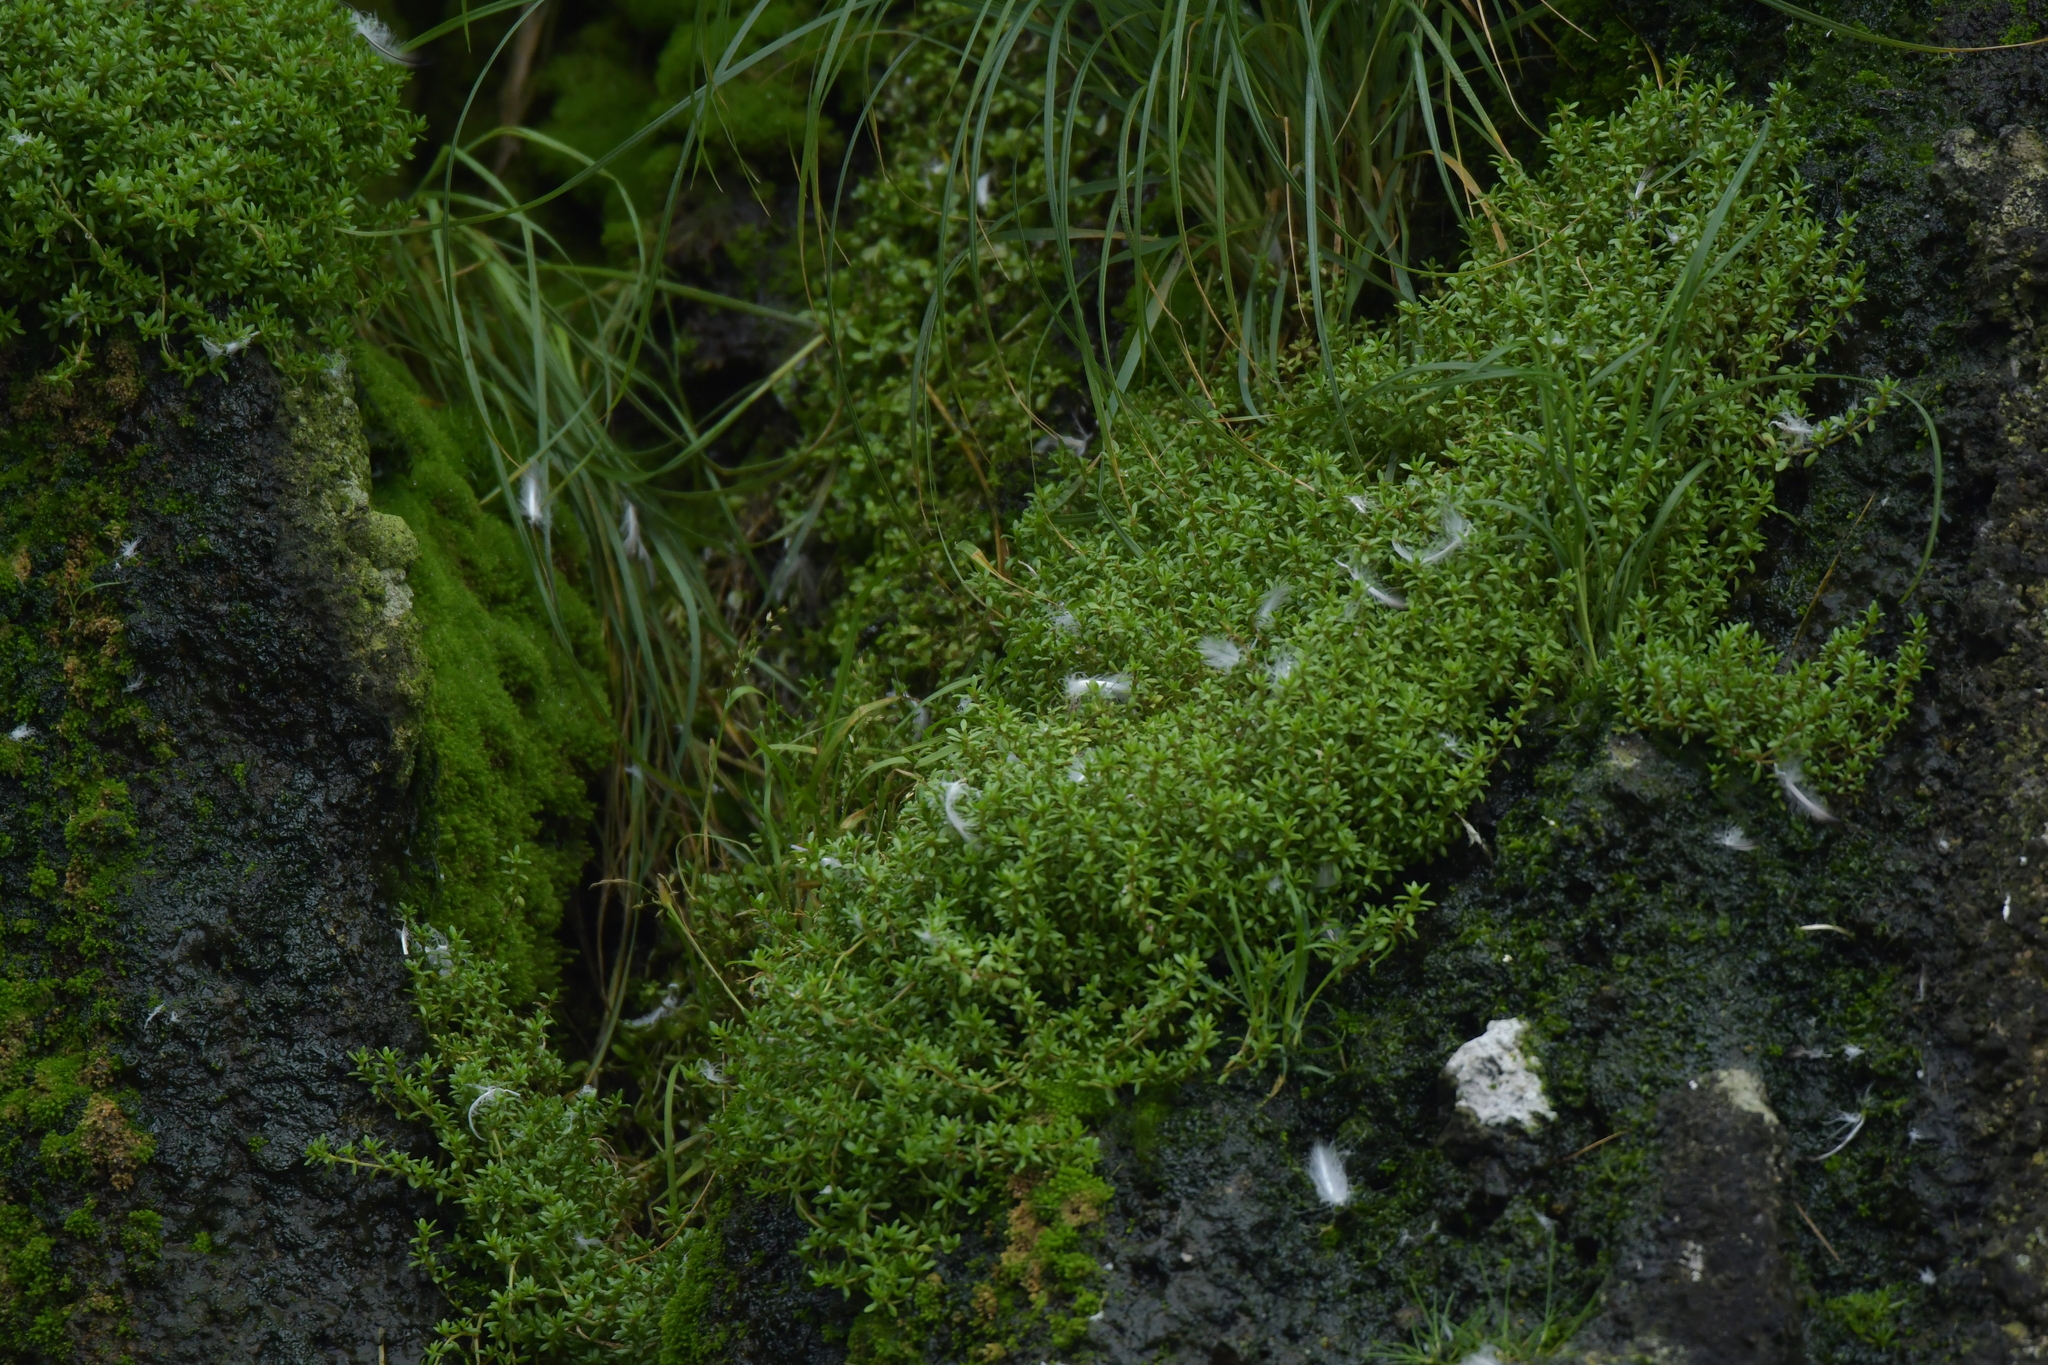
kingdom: Plantae
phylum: Tracheophyta
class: Magnoliopsida
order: Saxifragales
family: Crassulaceae
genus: Crassula
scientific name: Crassula moschata
